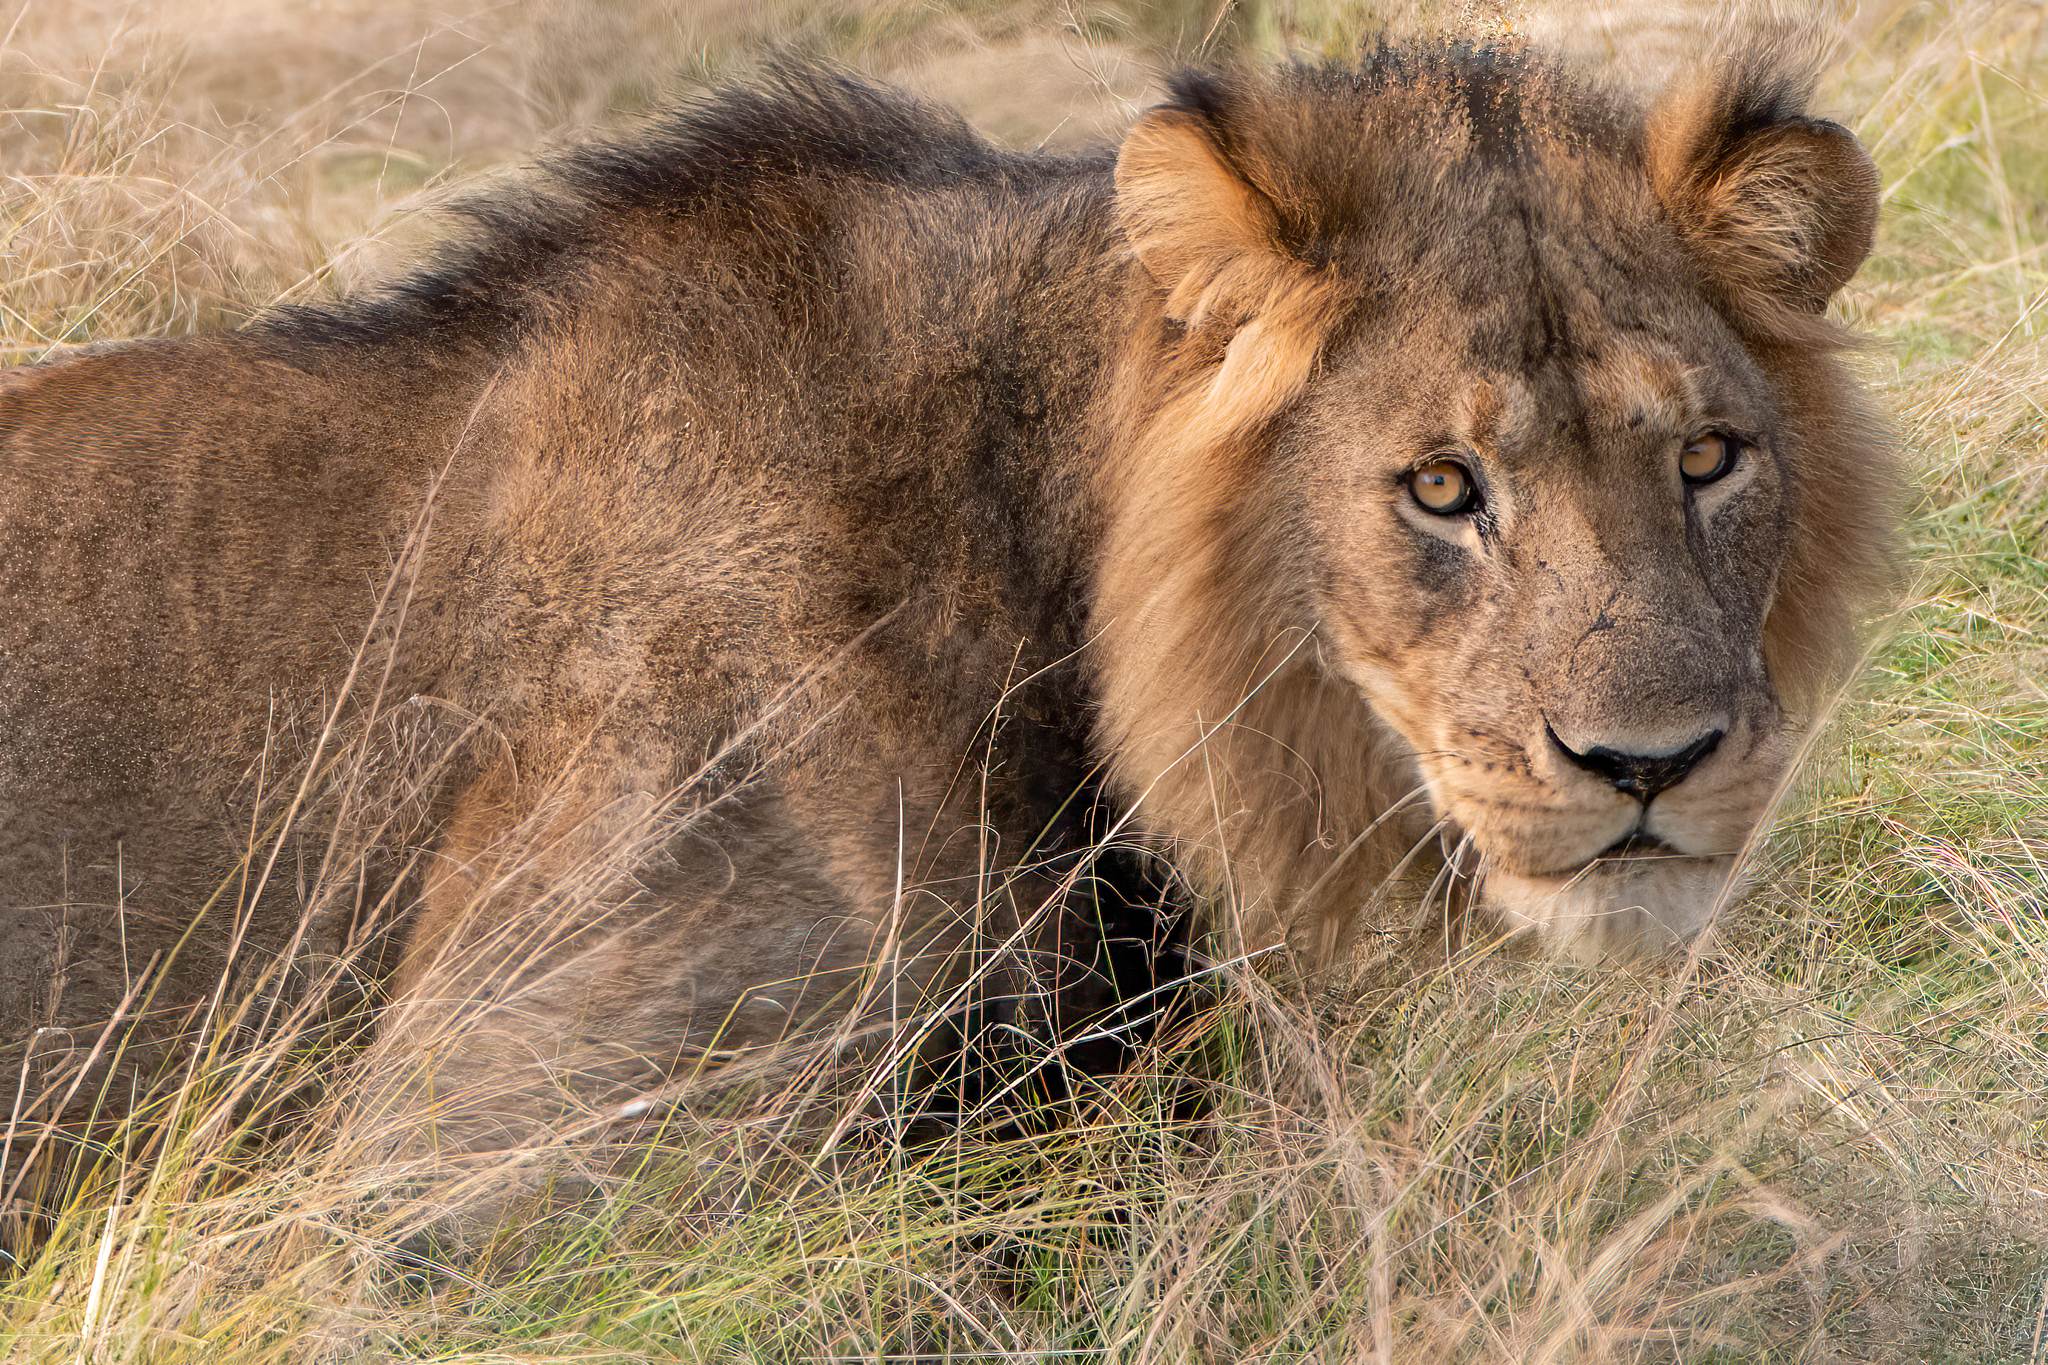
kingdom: Animalia
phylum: Chordata
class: Mammalia
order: Carnivora
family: Felidae
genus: Panthera
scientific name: Panthera leo
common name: Lion
